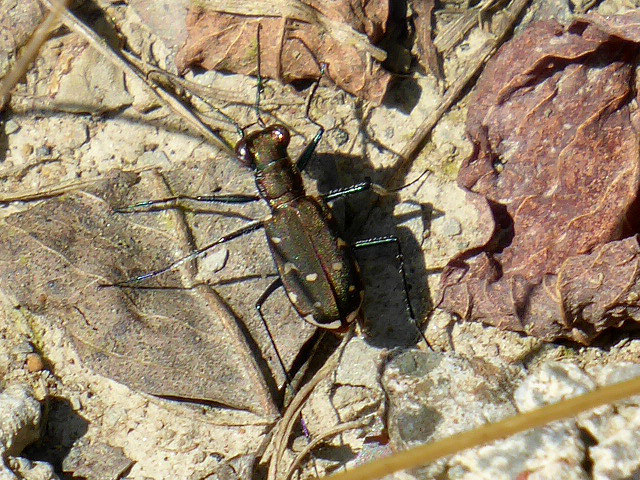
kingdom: Animalia
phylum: Arthropoda
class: Insecta
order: Coleoptera
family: Carabidae
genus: Cicindela
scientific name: Cicindela rufiventris
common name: Eastern red-bellied tiger beetle
